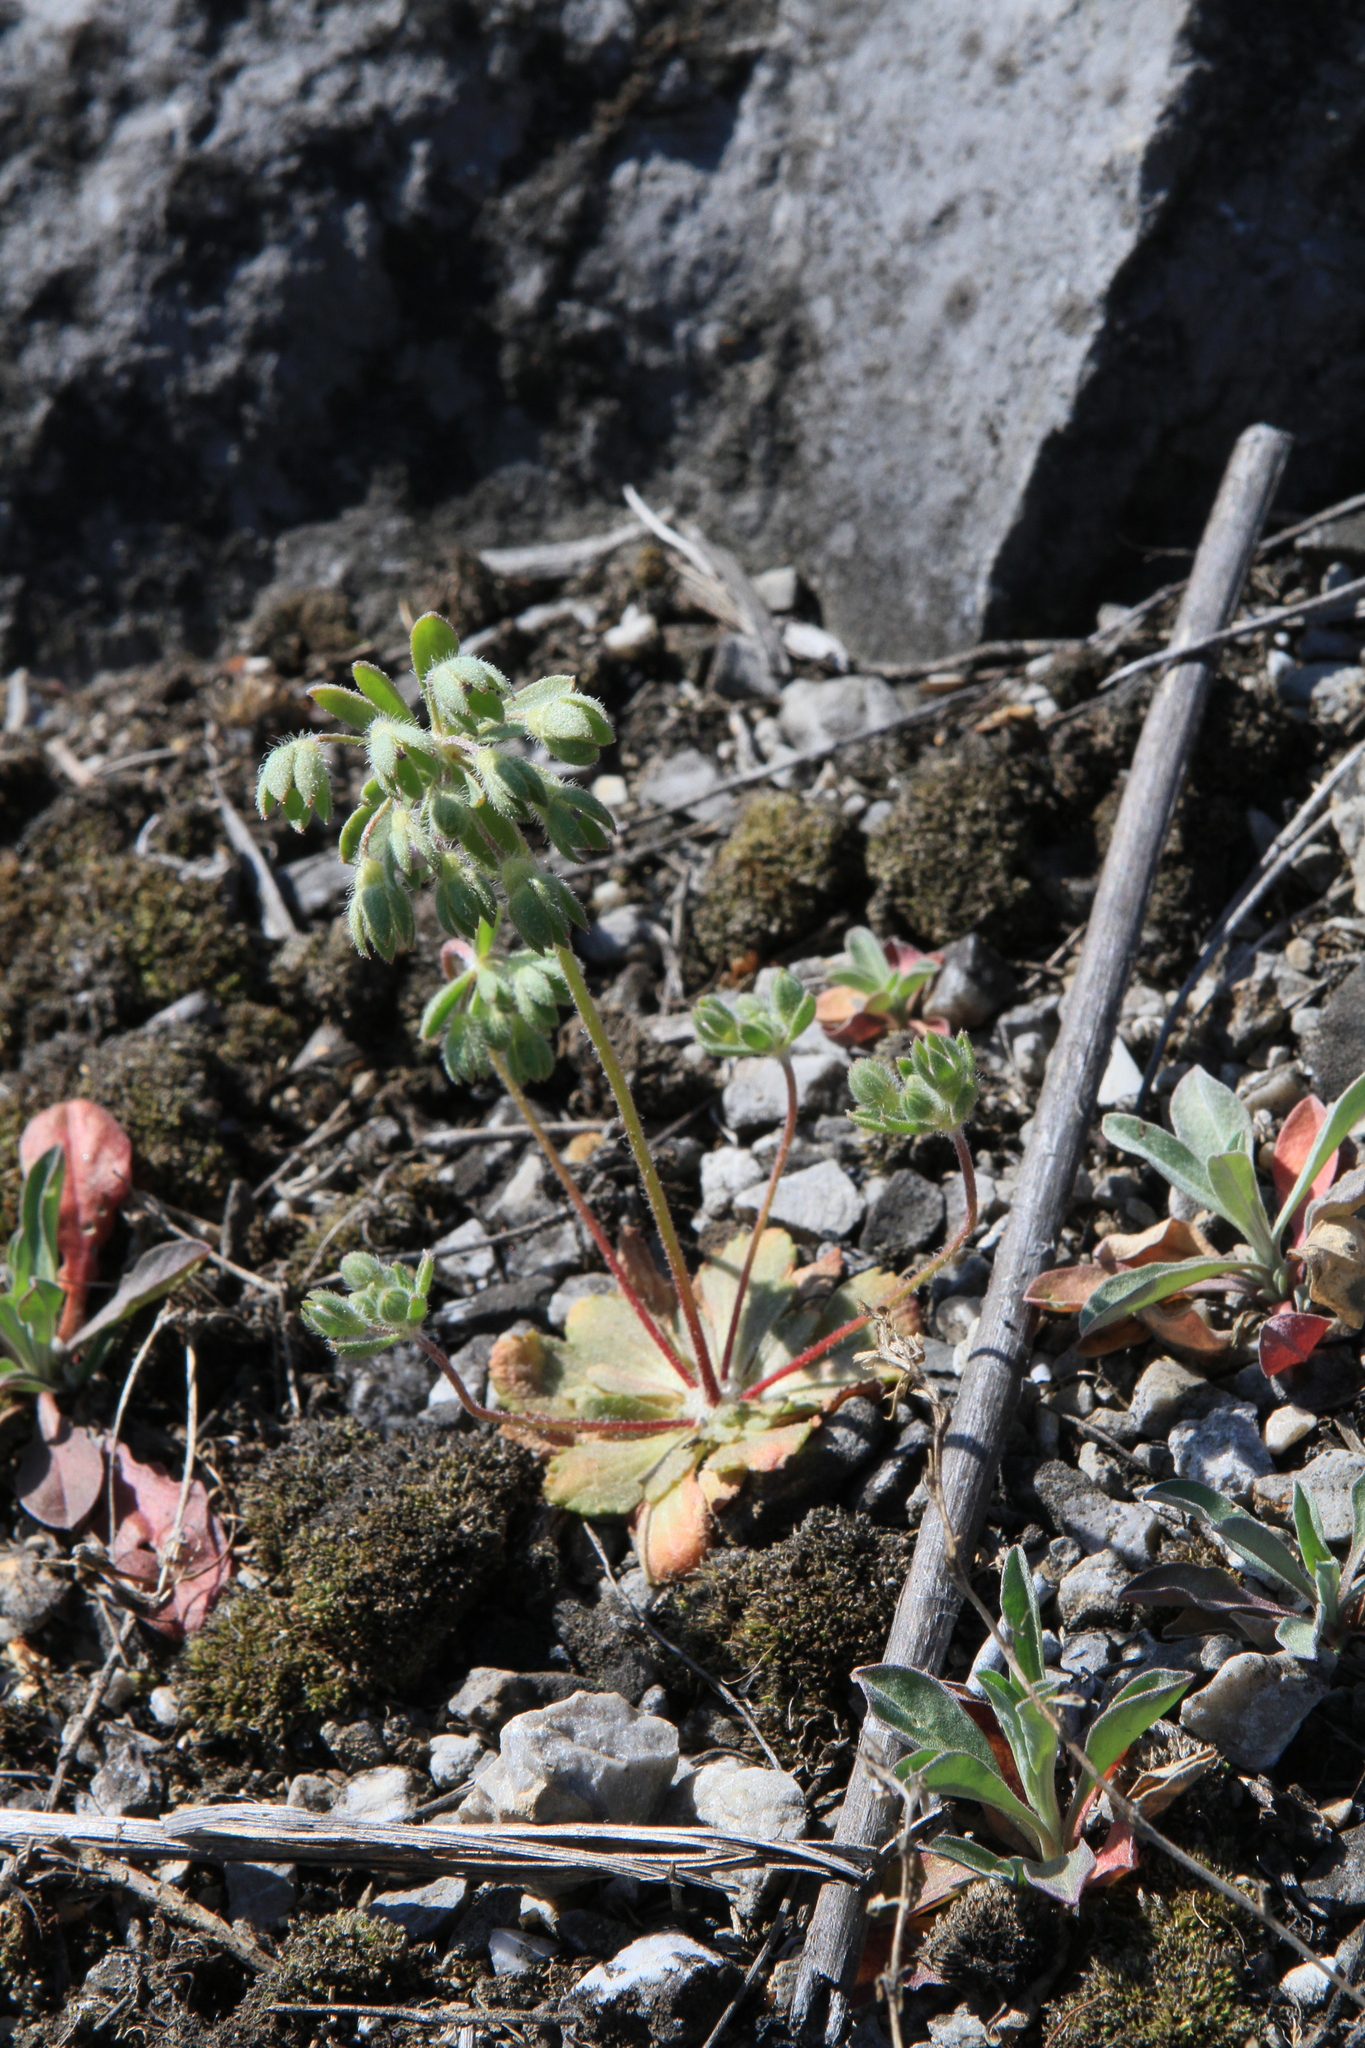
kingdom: Plantae
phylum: Tracheophyta
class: Magnoliopsida
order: Ericales
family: Primulaceae
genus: Androsace
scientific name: Androsace maxima
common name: Annual androsace
